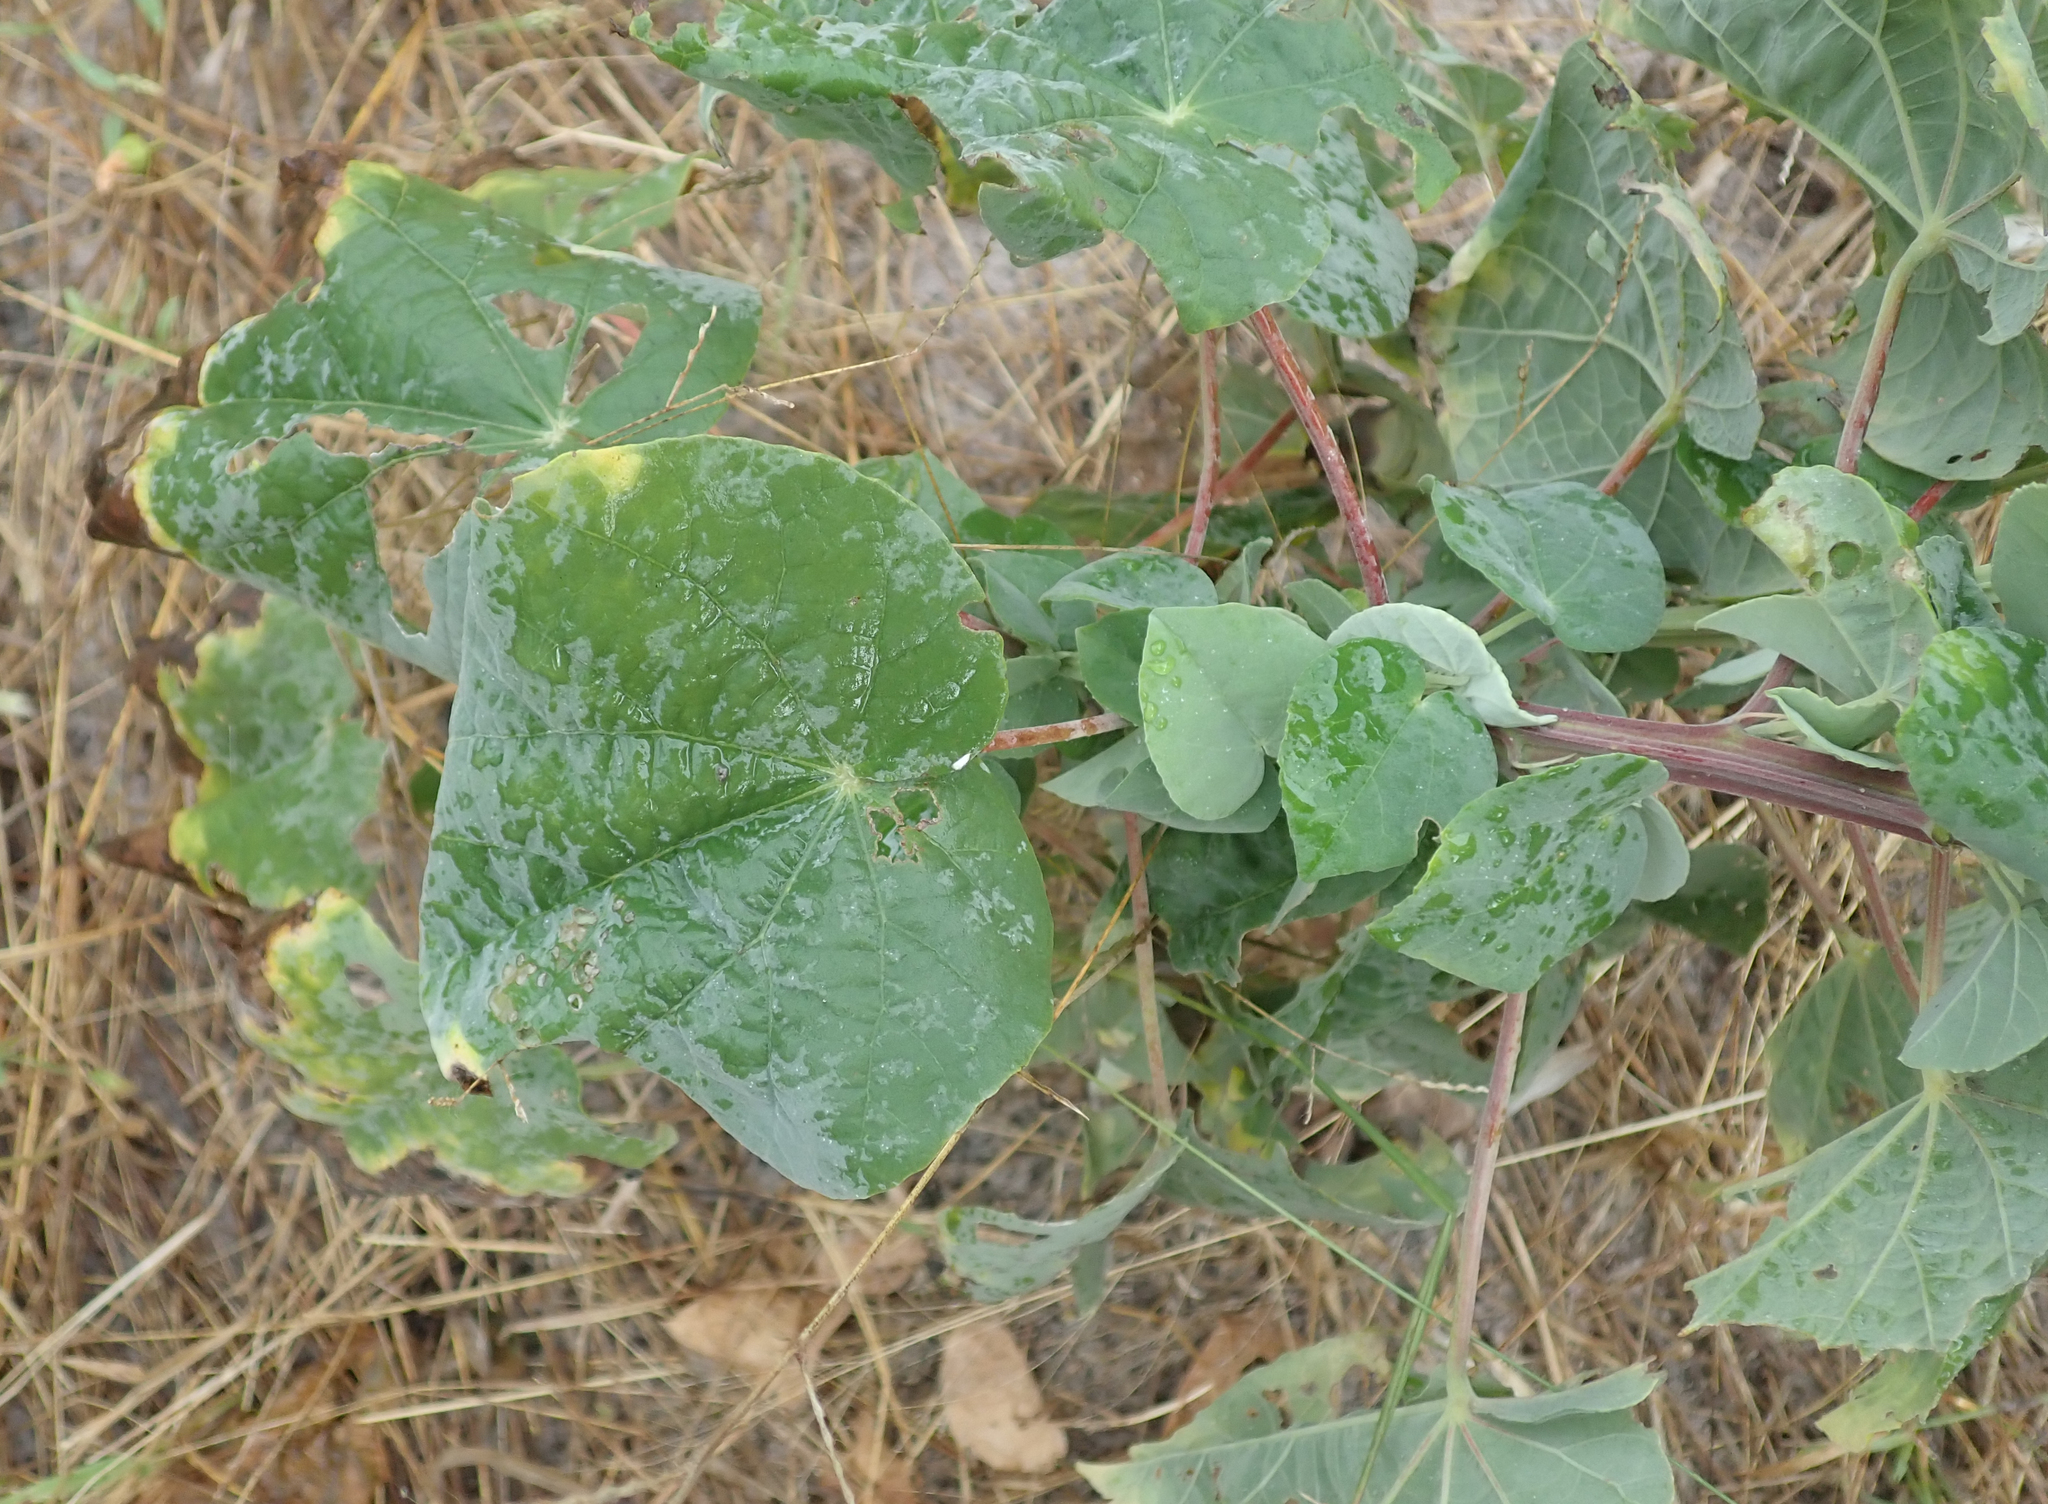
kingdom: Plantae
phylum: Tracheophyta
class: Magnoliopsida
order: Malvales
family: Malvaceae
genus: Abutilon
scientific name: Abutilon angulatum
